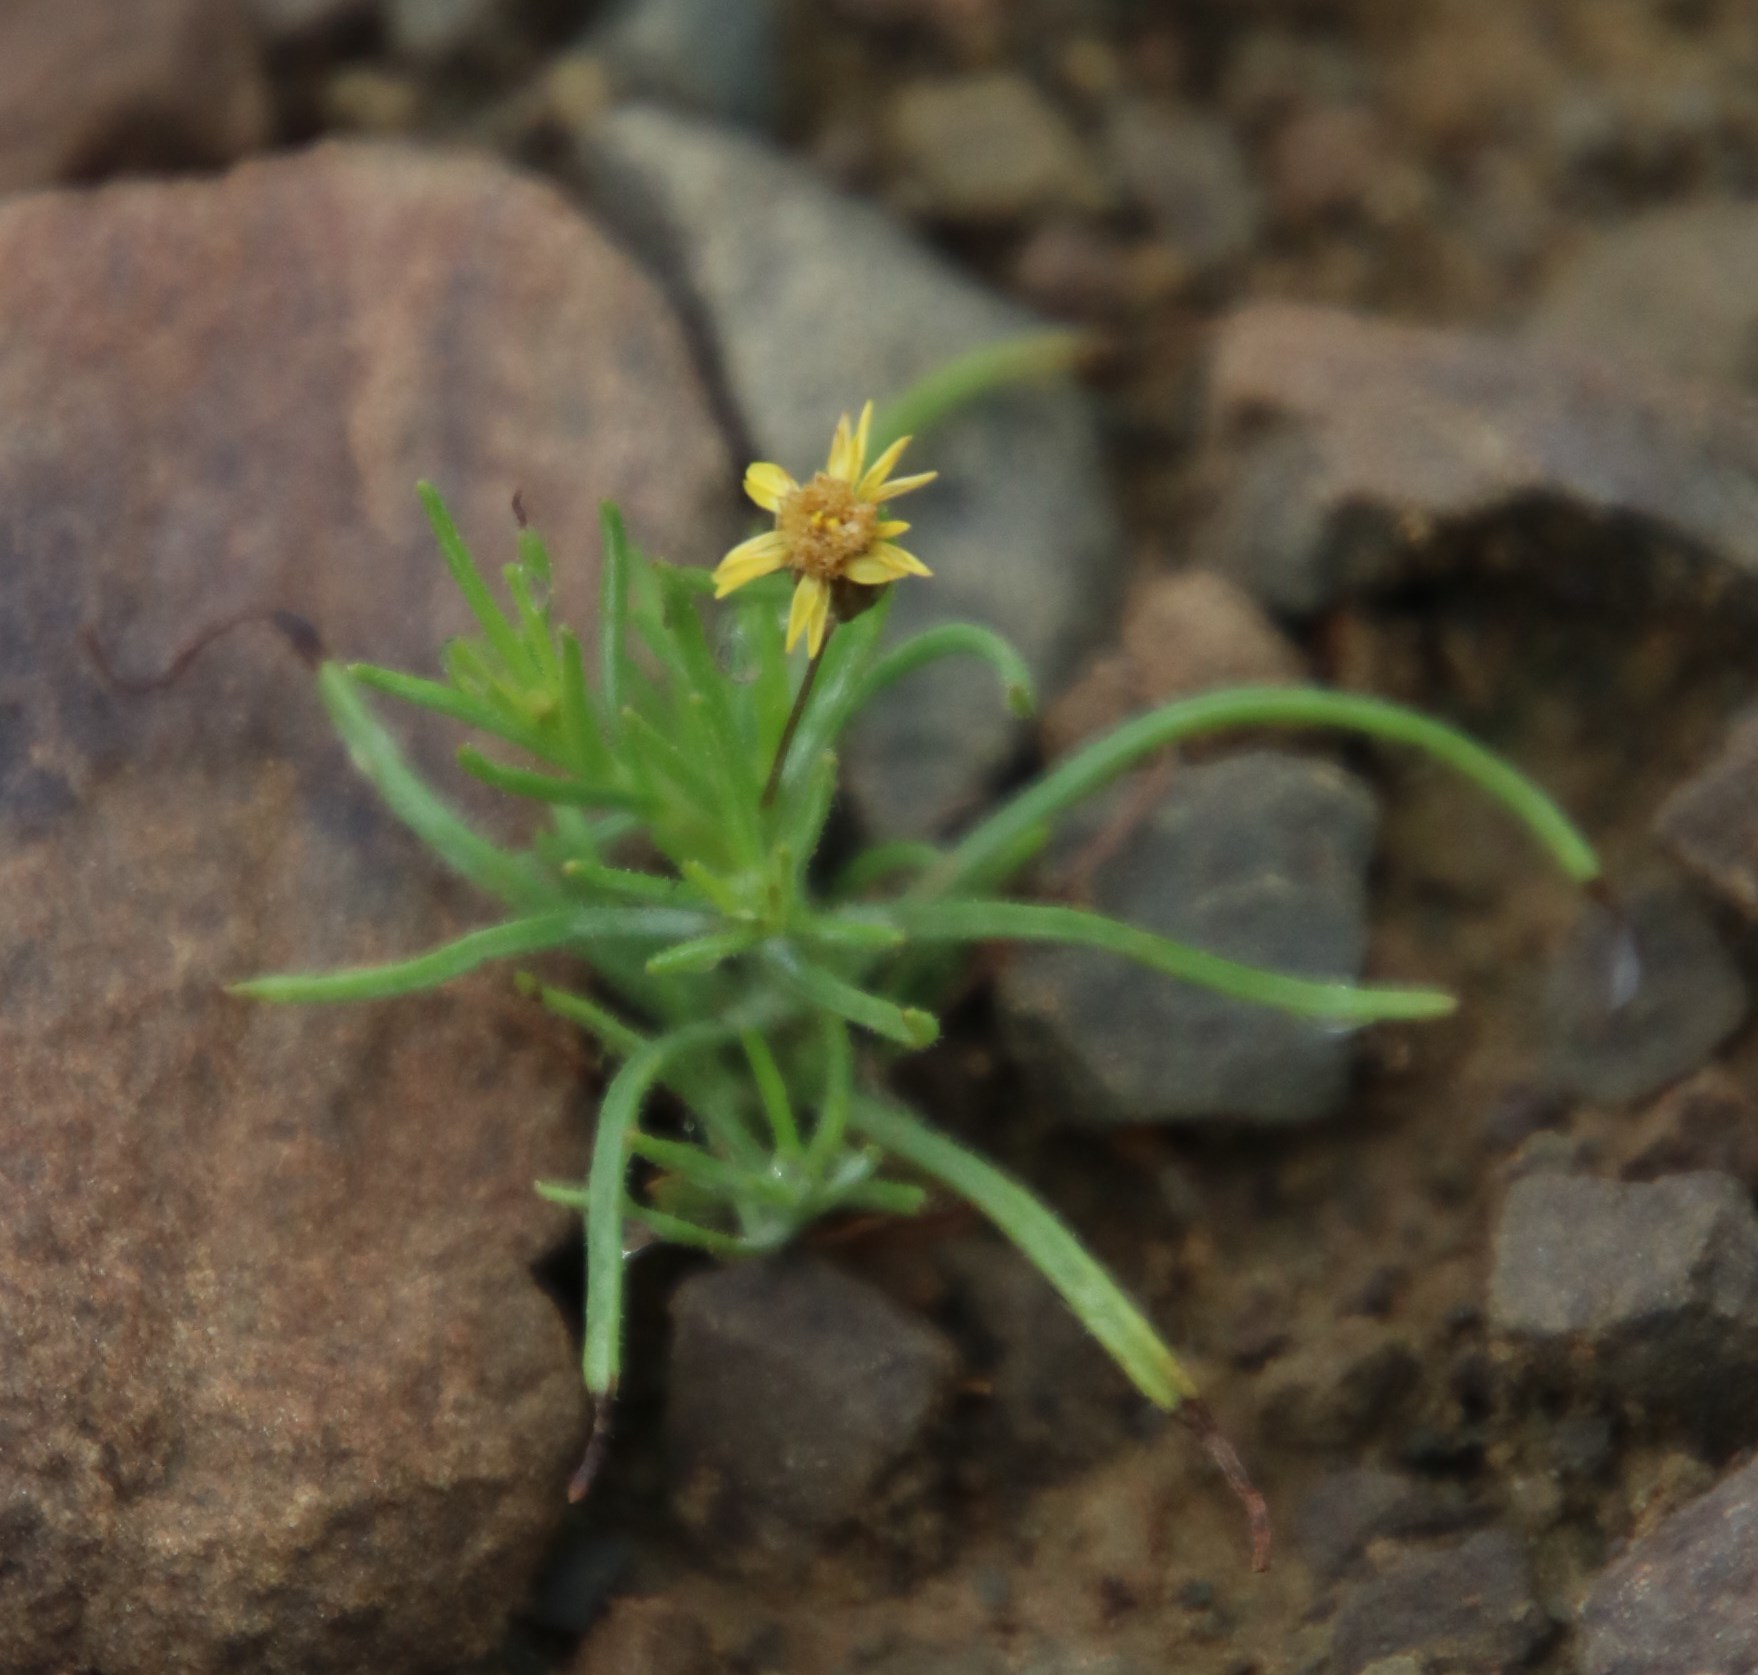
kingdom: Plantae
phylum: Tracheophyta
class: Magnoliopsida
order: Asterales
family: Asteraceae
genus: Leysera
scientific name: Leysera tenella
